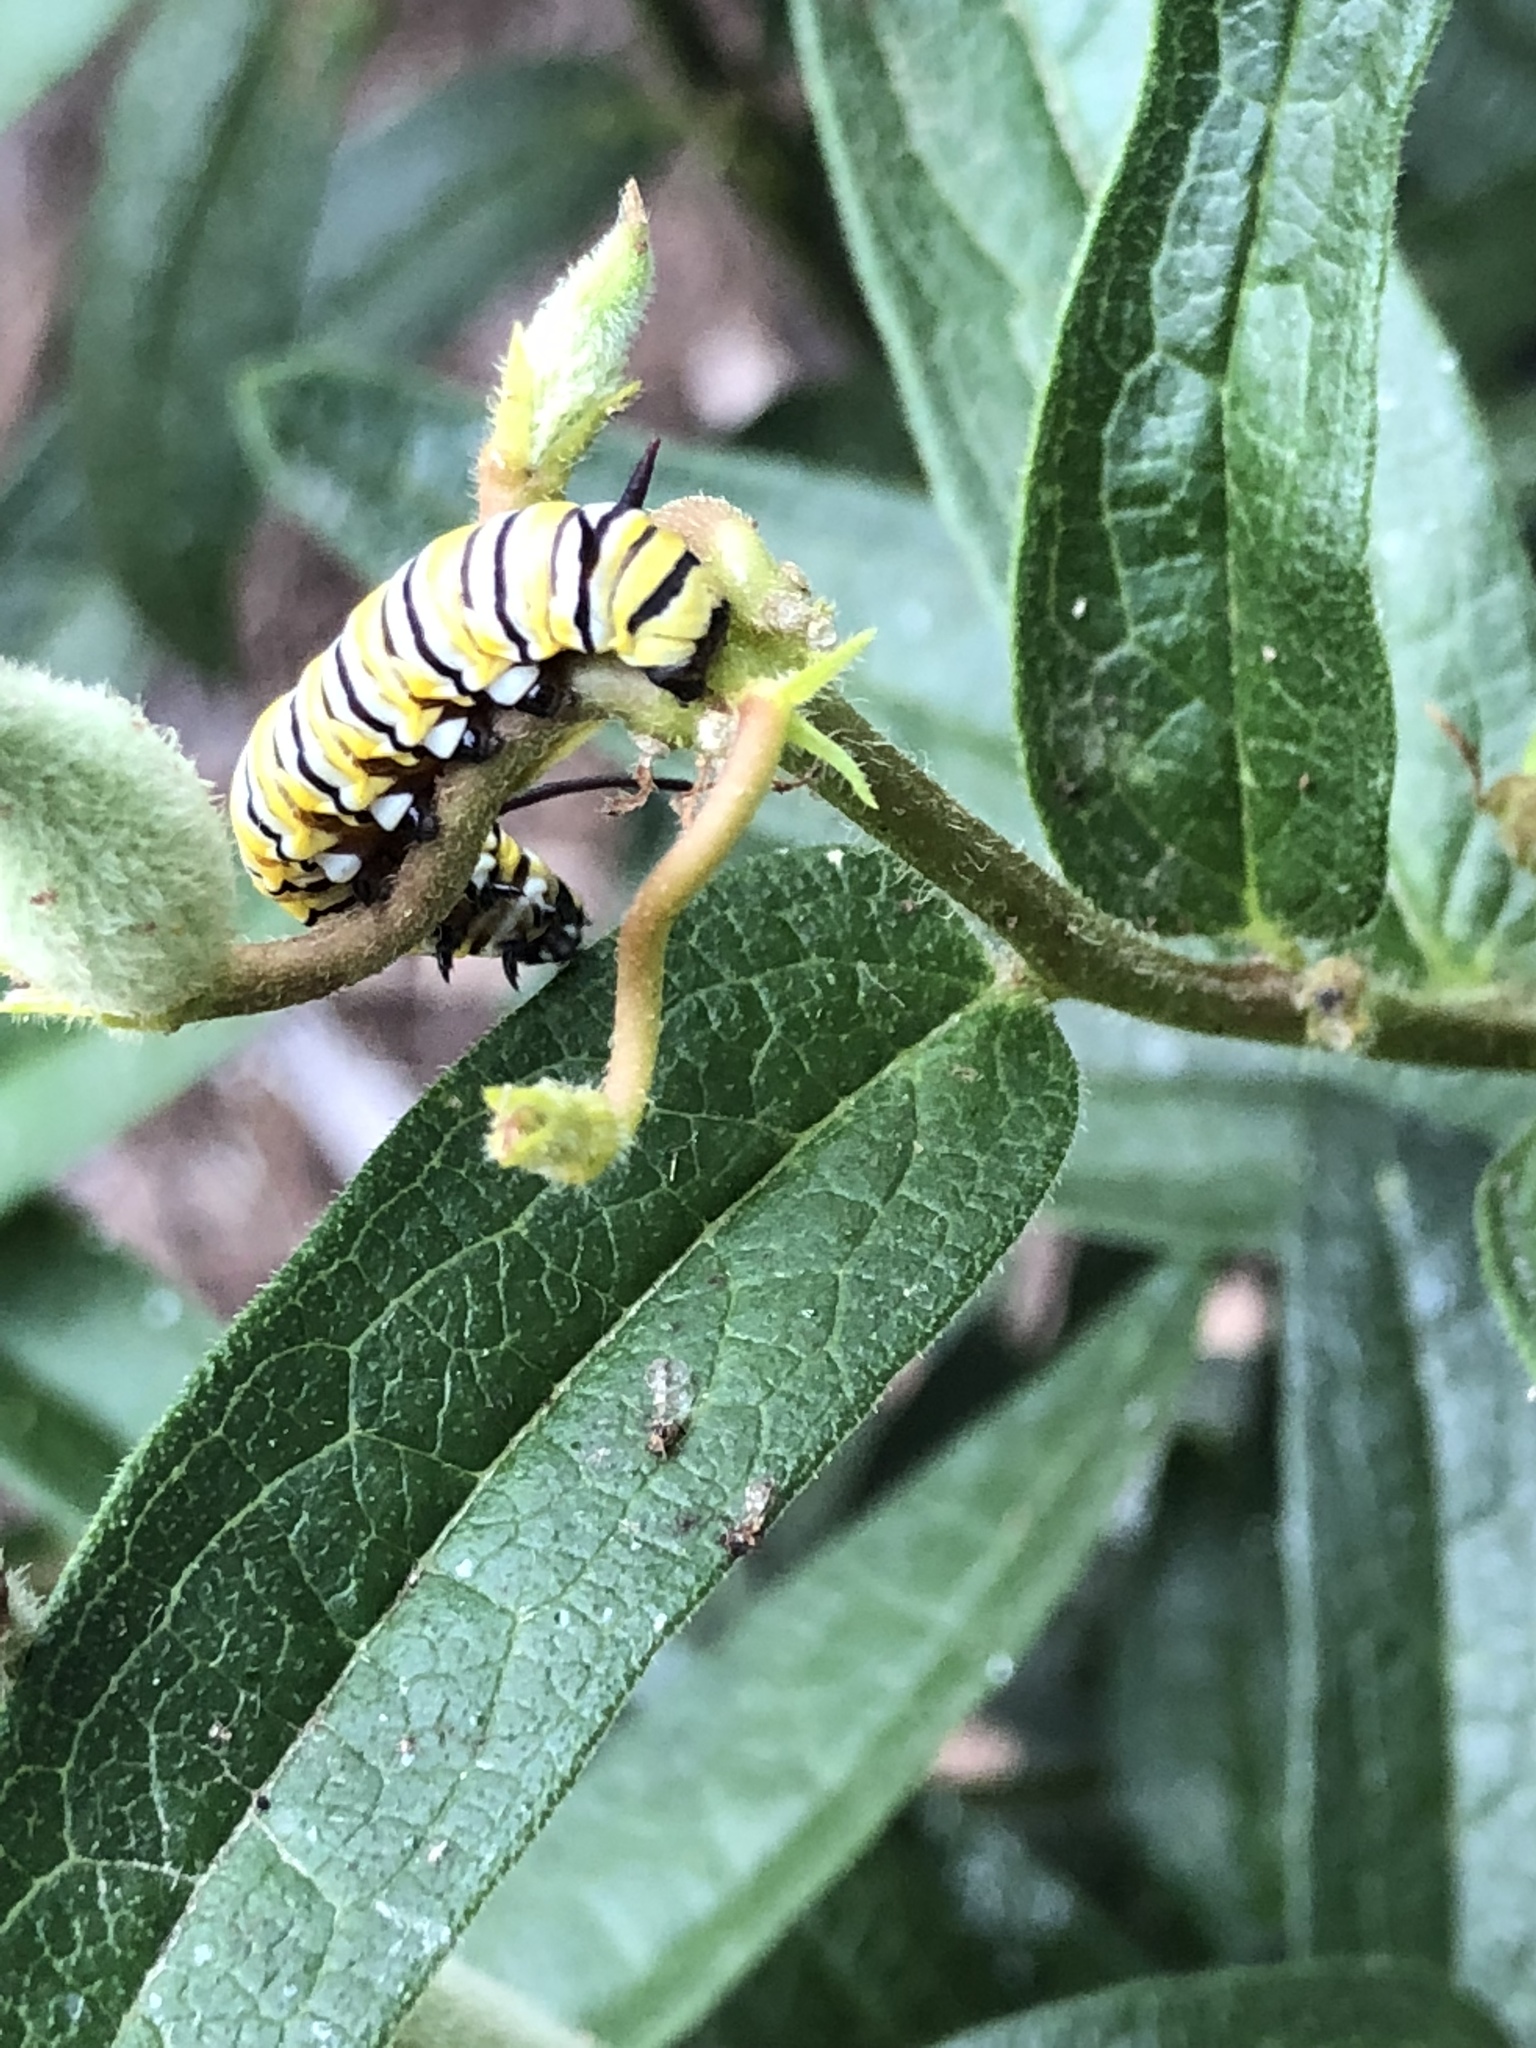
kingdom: Animalia
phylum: Arthropoda
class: Insecta
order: Lepidoptera
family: Nymphalidae
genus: Danaus
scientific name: Danaus plexippus
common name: Monarch
